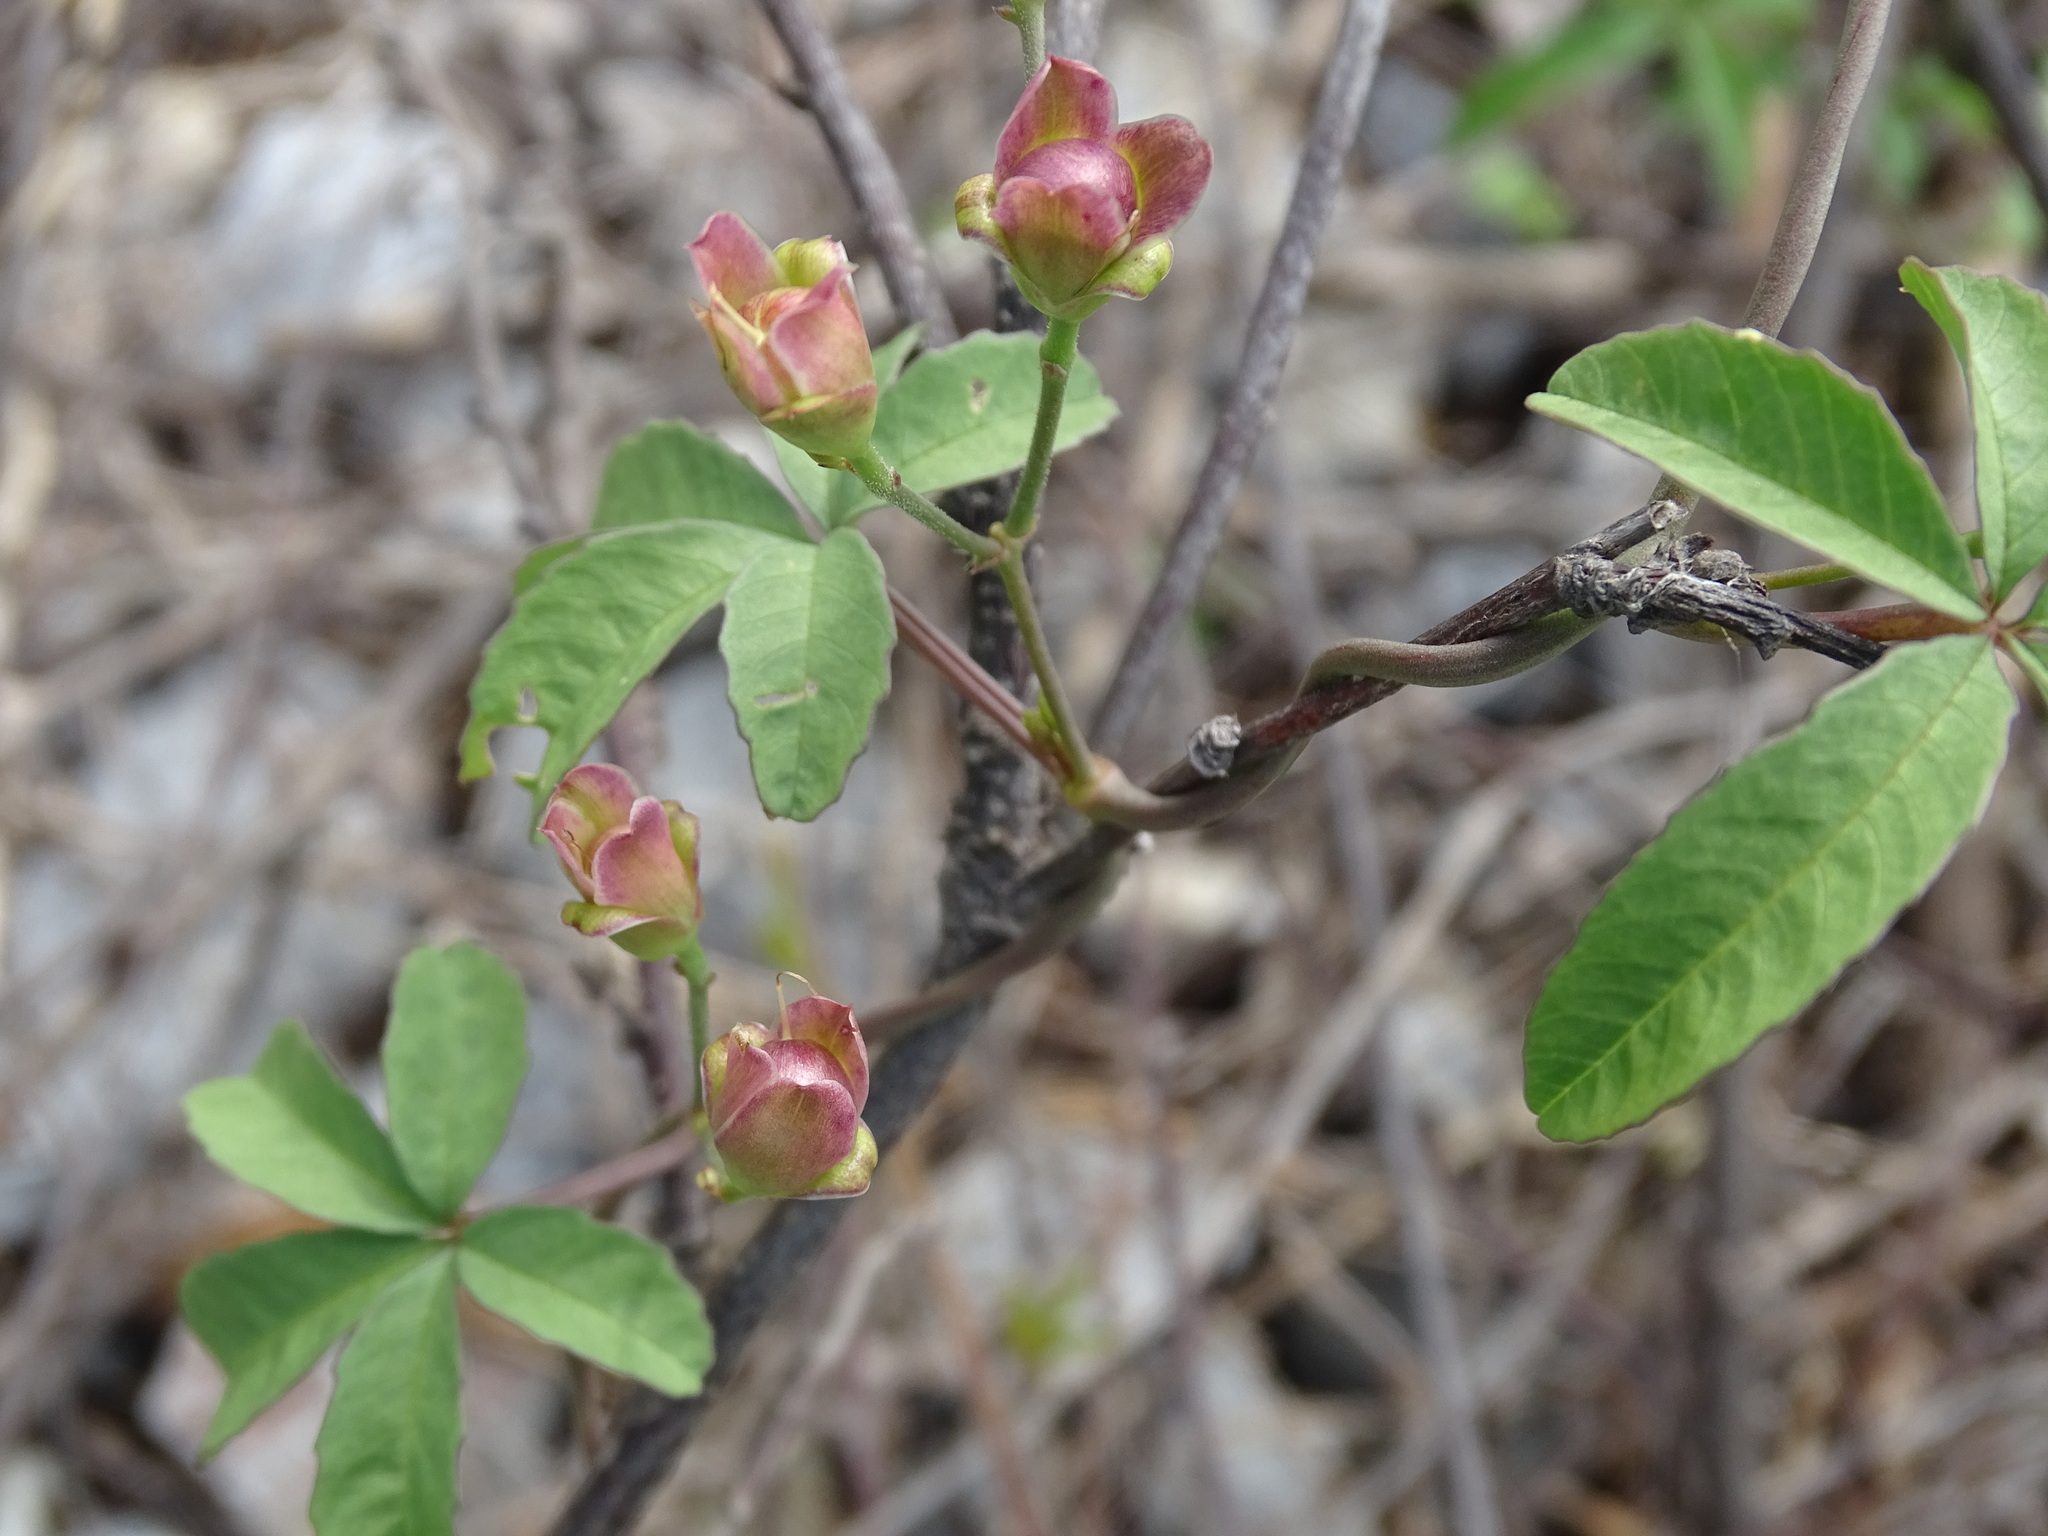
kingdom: Plantae
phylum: Tracheophyta
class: Magnoliopsida
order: Solanales
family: Convolvulaceae
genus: Distimake
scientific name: Distimake quinquefolius
